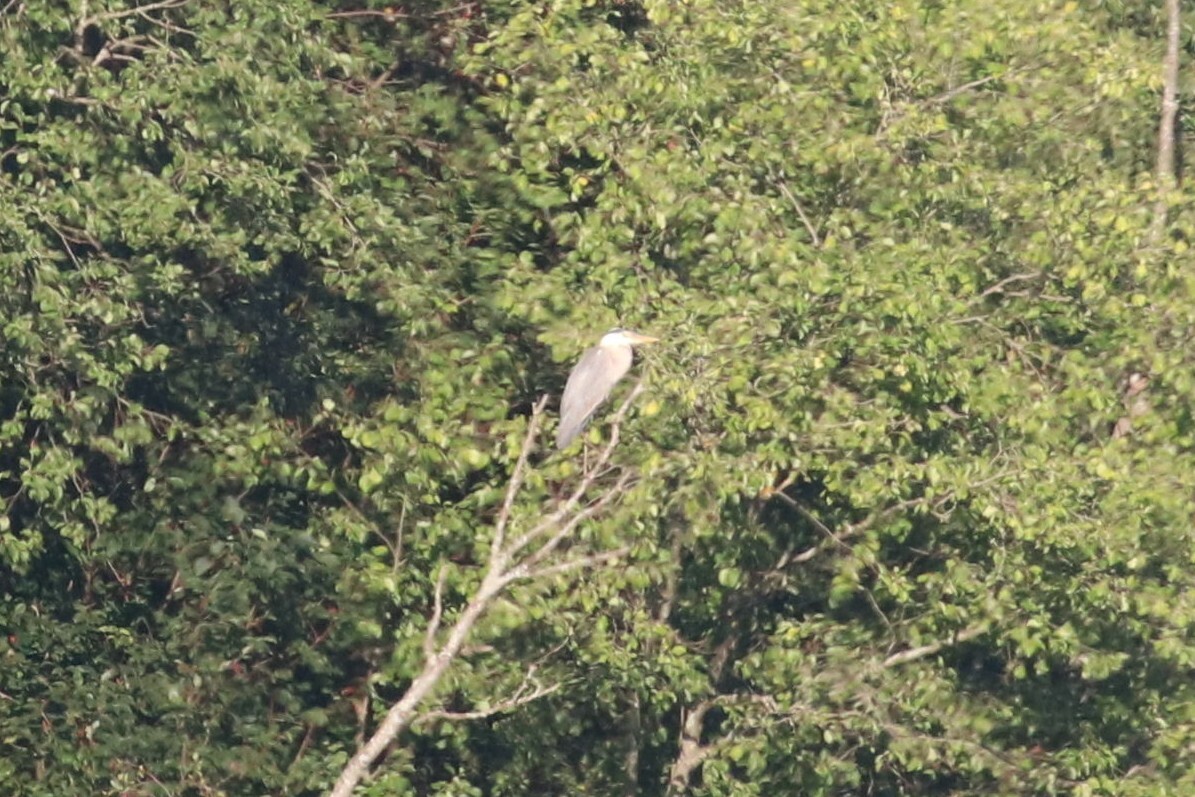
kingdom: Animalia
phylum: Chordata
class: Aves
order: Pelecaniformes
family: Ardeidae
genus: Ardea
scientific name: Ardea cinerea
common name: Grey heron
